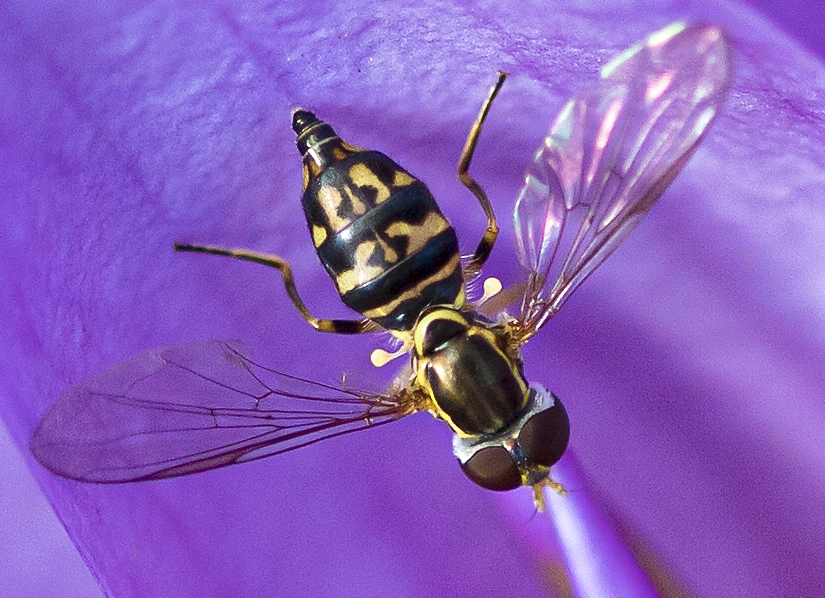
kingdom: Animalia
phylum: Arthropoda
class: Insecta
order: Diptera
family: Syrphidae
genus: Toxomerus
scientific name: Toxomerus geminatus
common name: Eastern calligrapher
